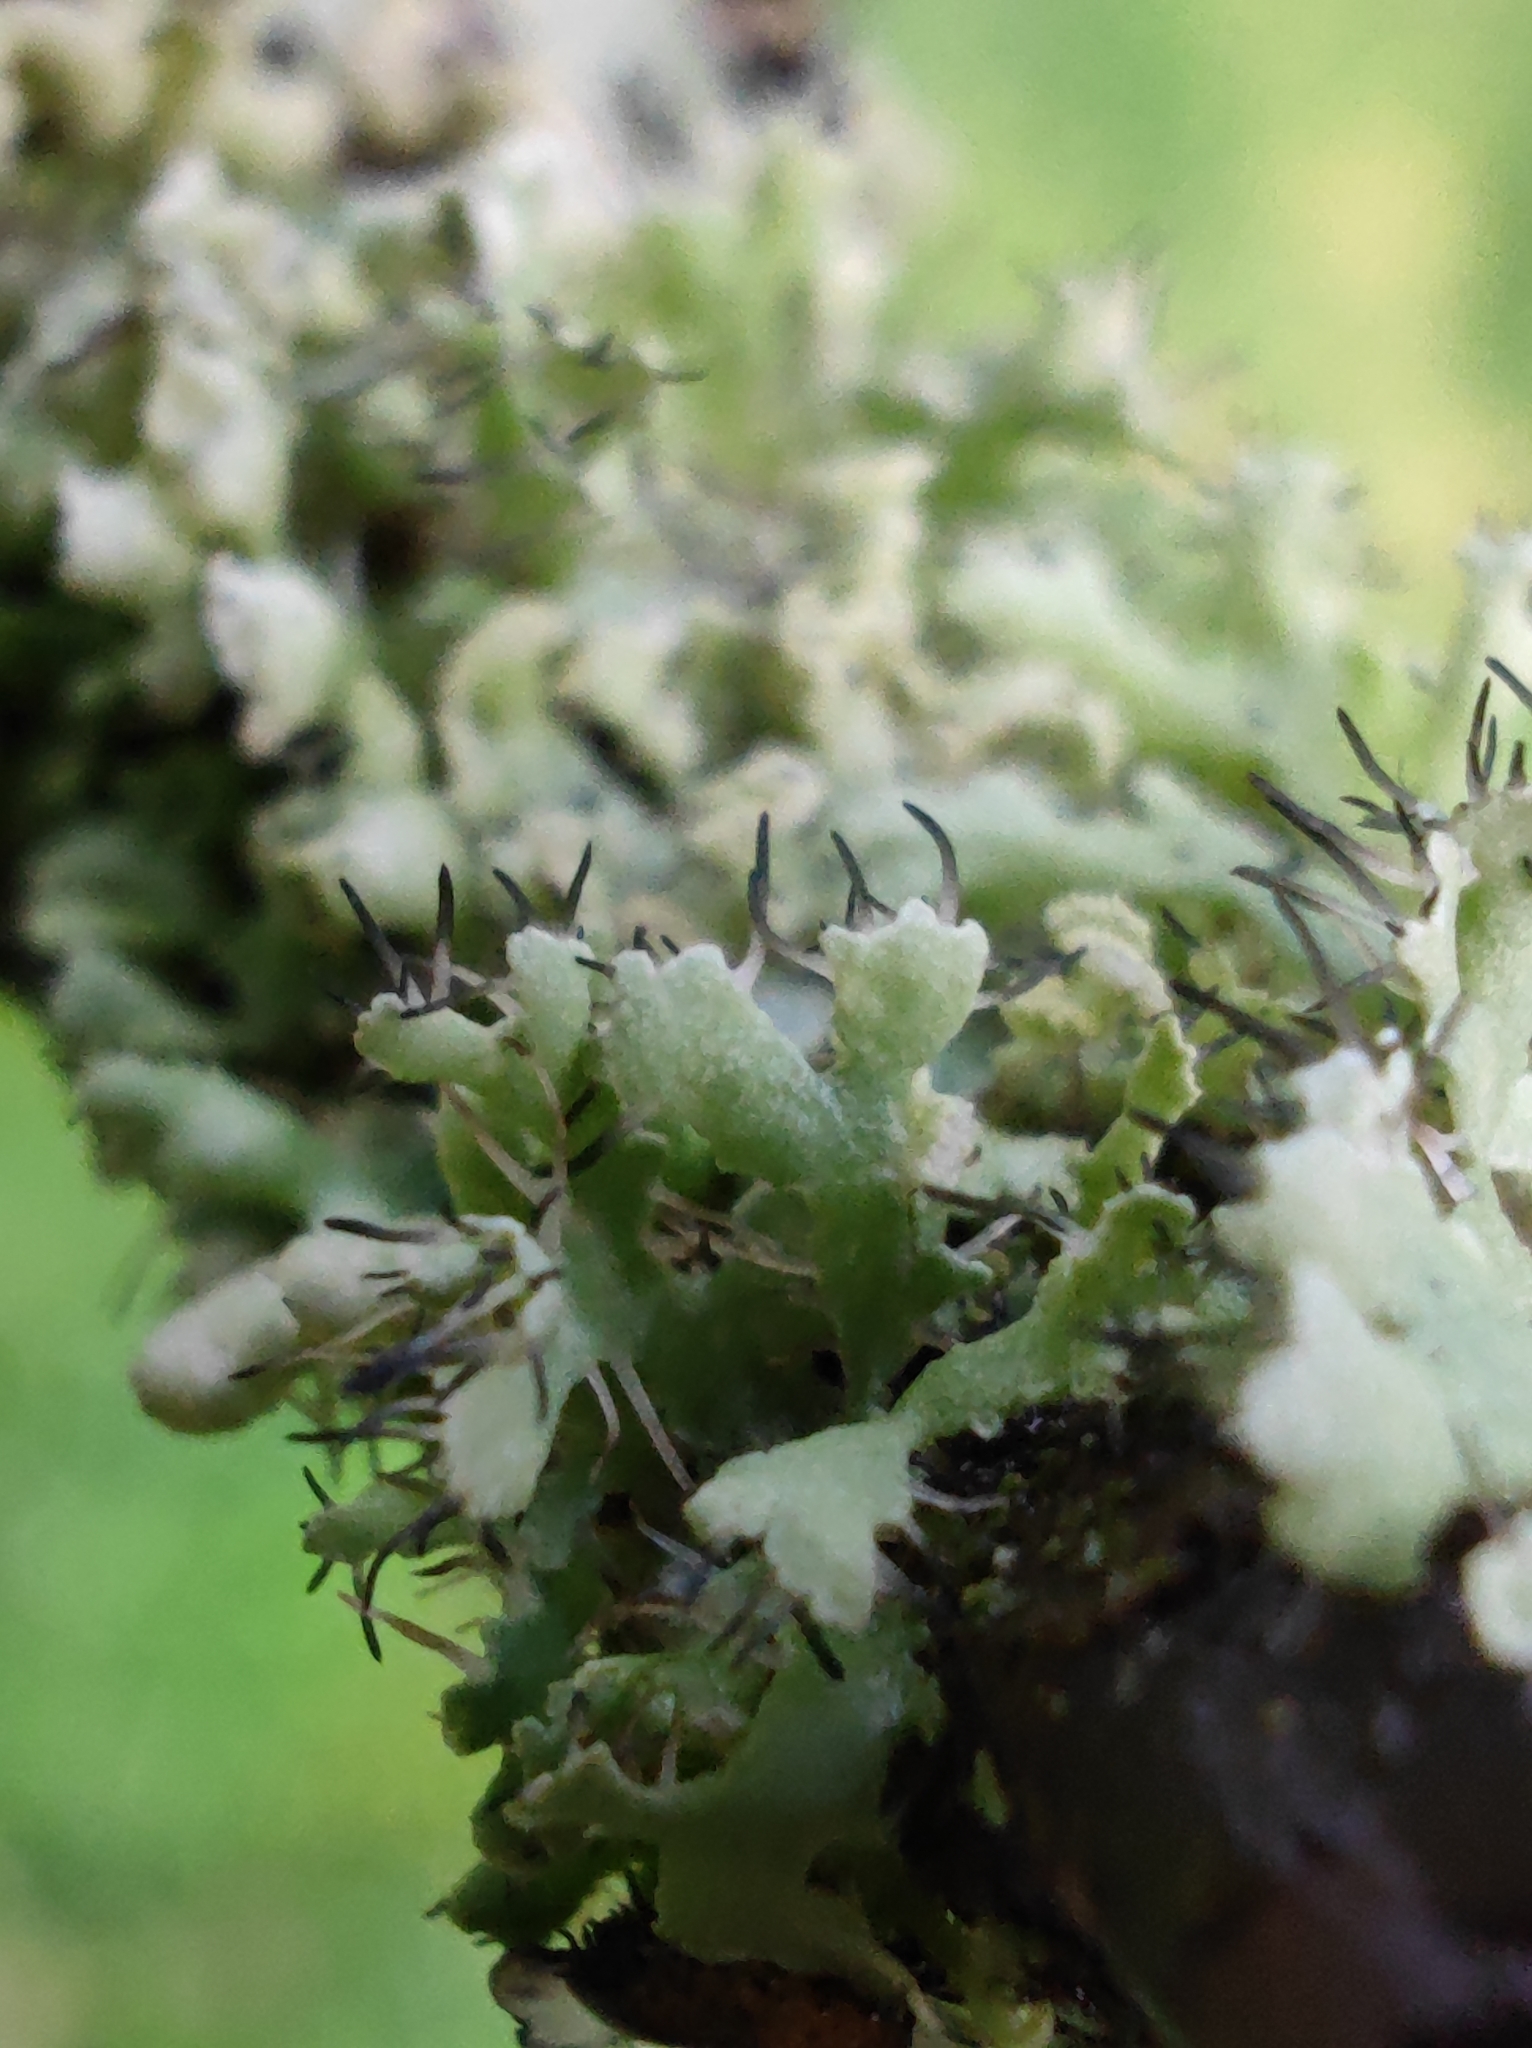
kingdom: Fungi
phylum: Ascomycota
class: Lecanoromycetes
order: Caliciales
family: Physciaceae
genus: Physcia
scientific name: Physcia adscendens
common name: Hooded rosette lichen
